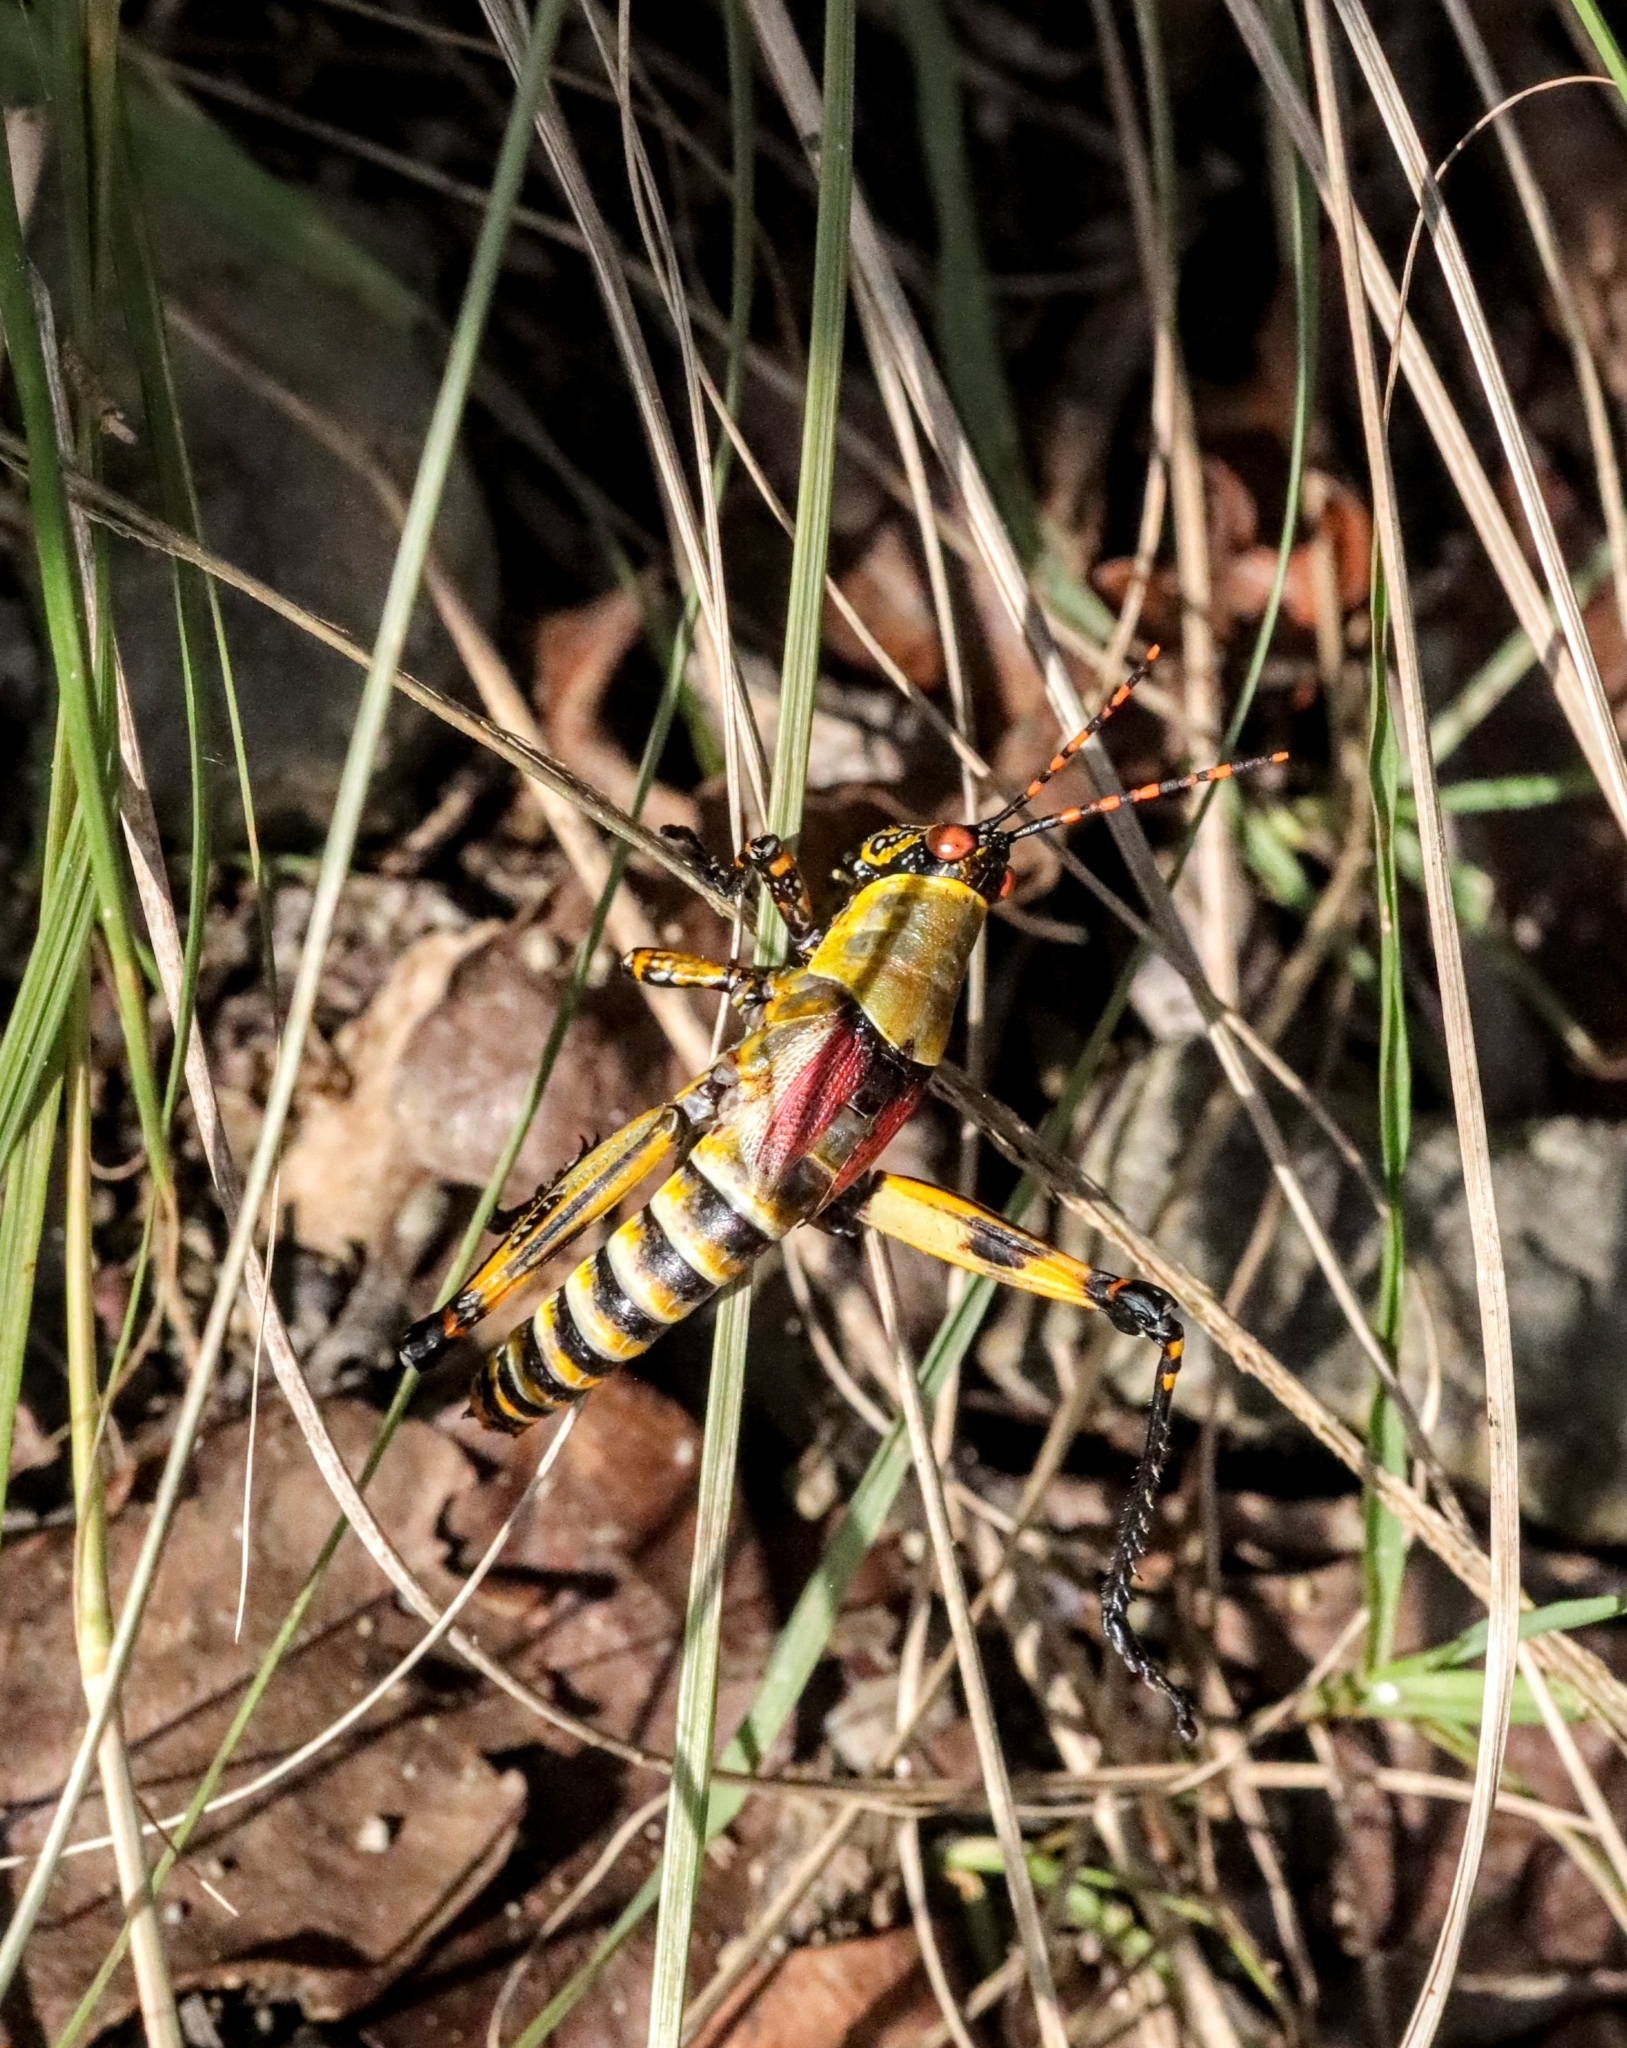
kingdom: Animalia
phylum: Arthropoda
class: Insecta
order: Orthoptera
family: Pyrgomorphidae
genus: Zonocerus
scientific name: Zonocerus elegans
